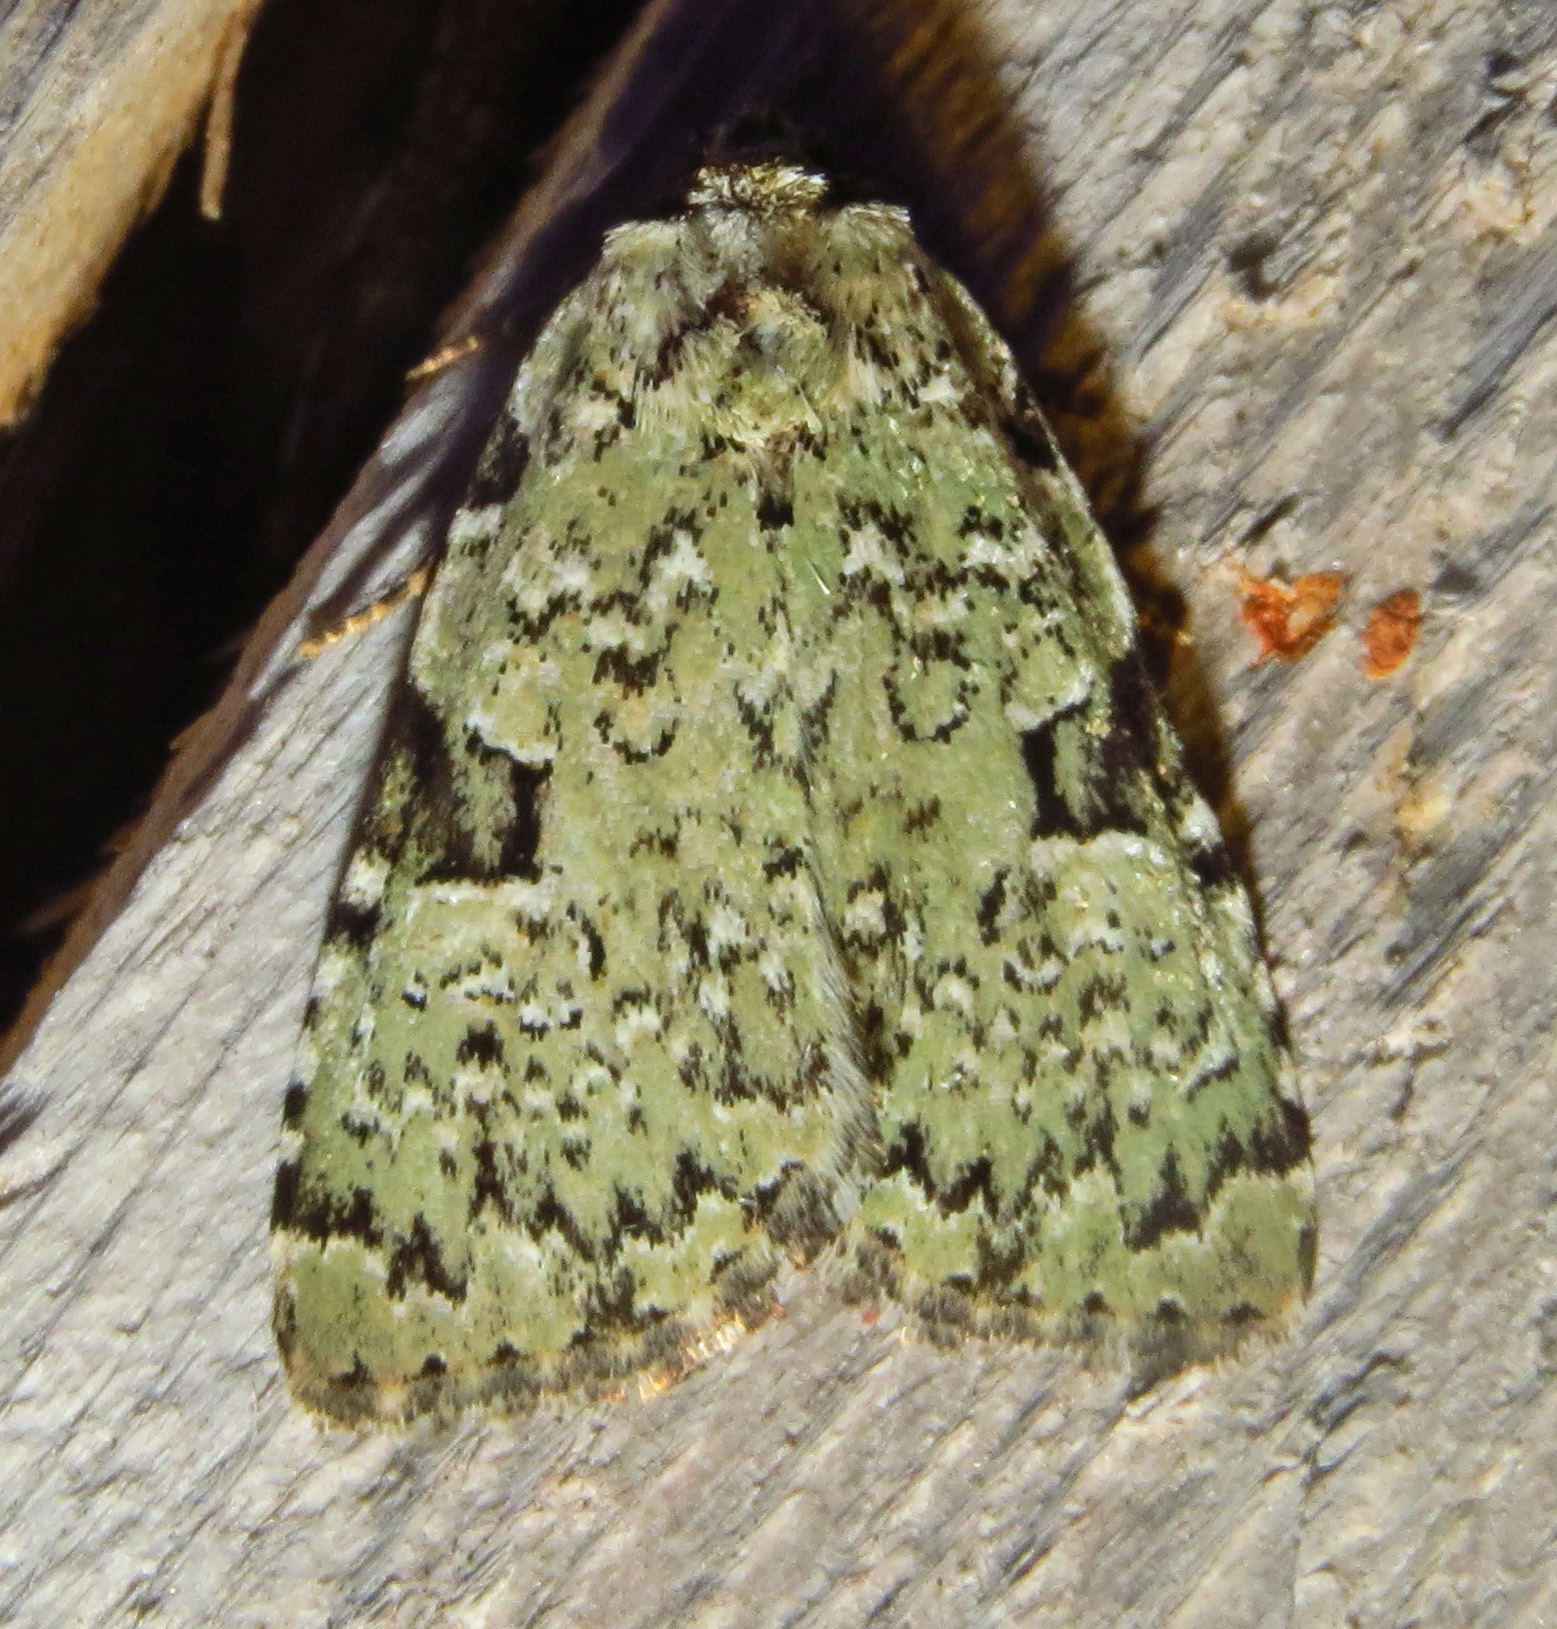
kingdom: Animalia
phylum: Arthropoda
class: Insecta
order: Lepidoptera
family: Noctuidae
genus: Leuconycta
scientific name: Leuconycta diphteroides
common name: Green leuconycta moth
